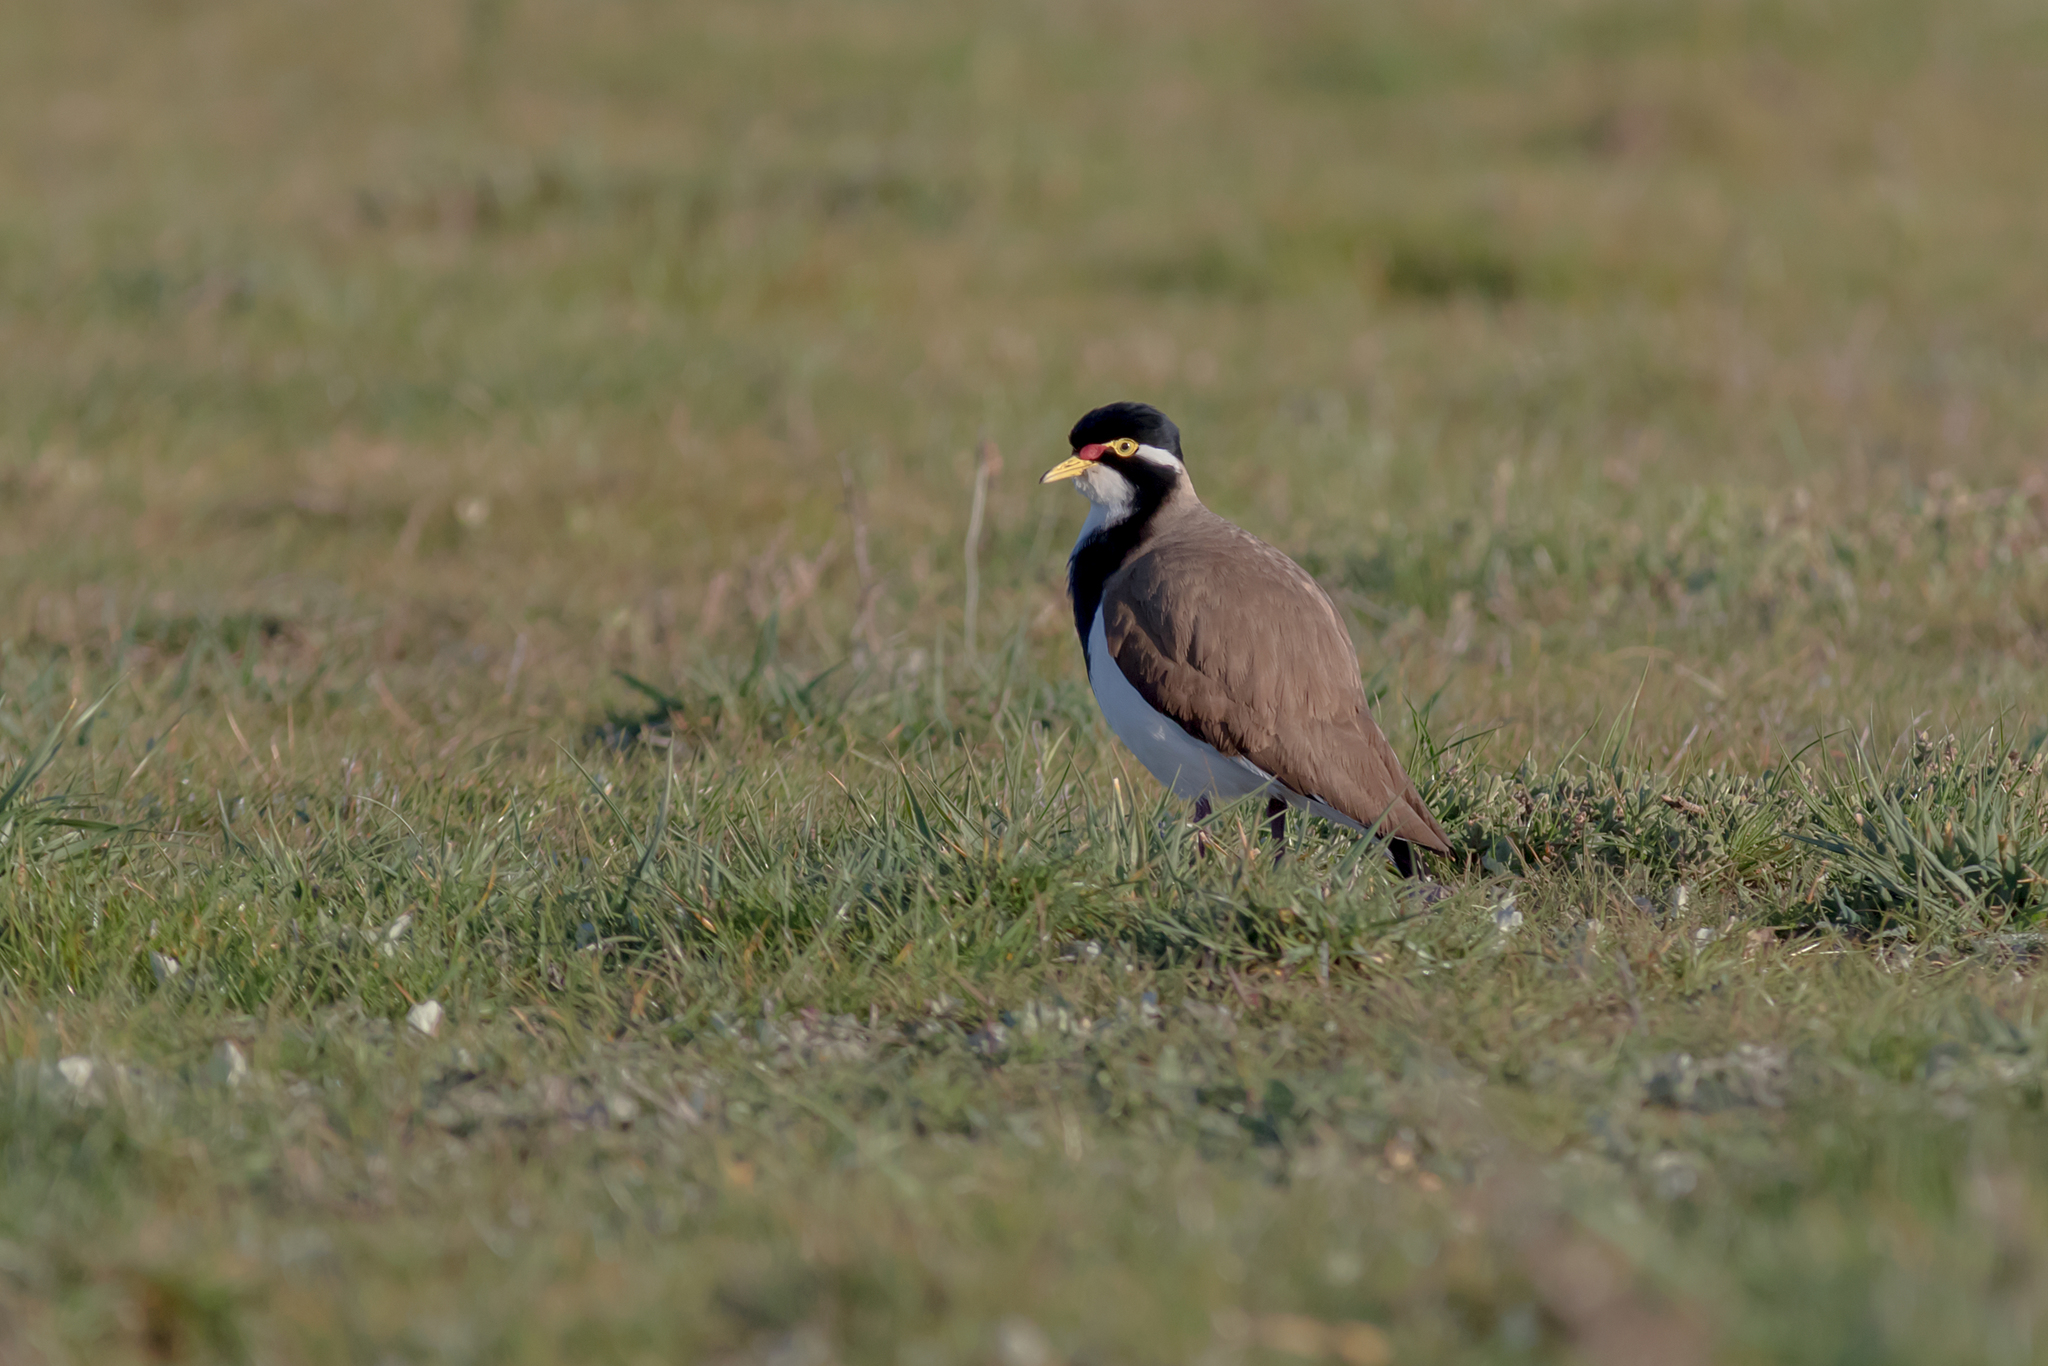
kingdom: Animalia
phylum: Chordata
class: Aves
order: Charadriiformes
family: Charadriidae
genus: Vanellus
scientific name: Vanellus tricolor
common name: Banded lapwing
